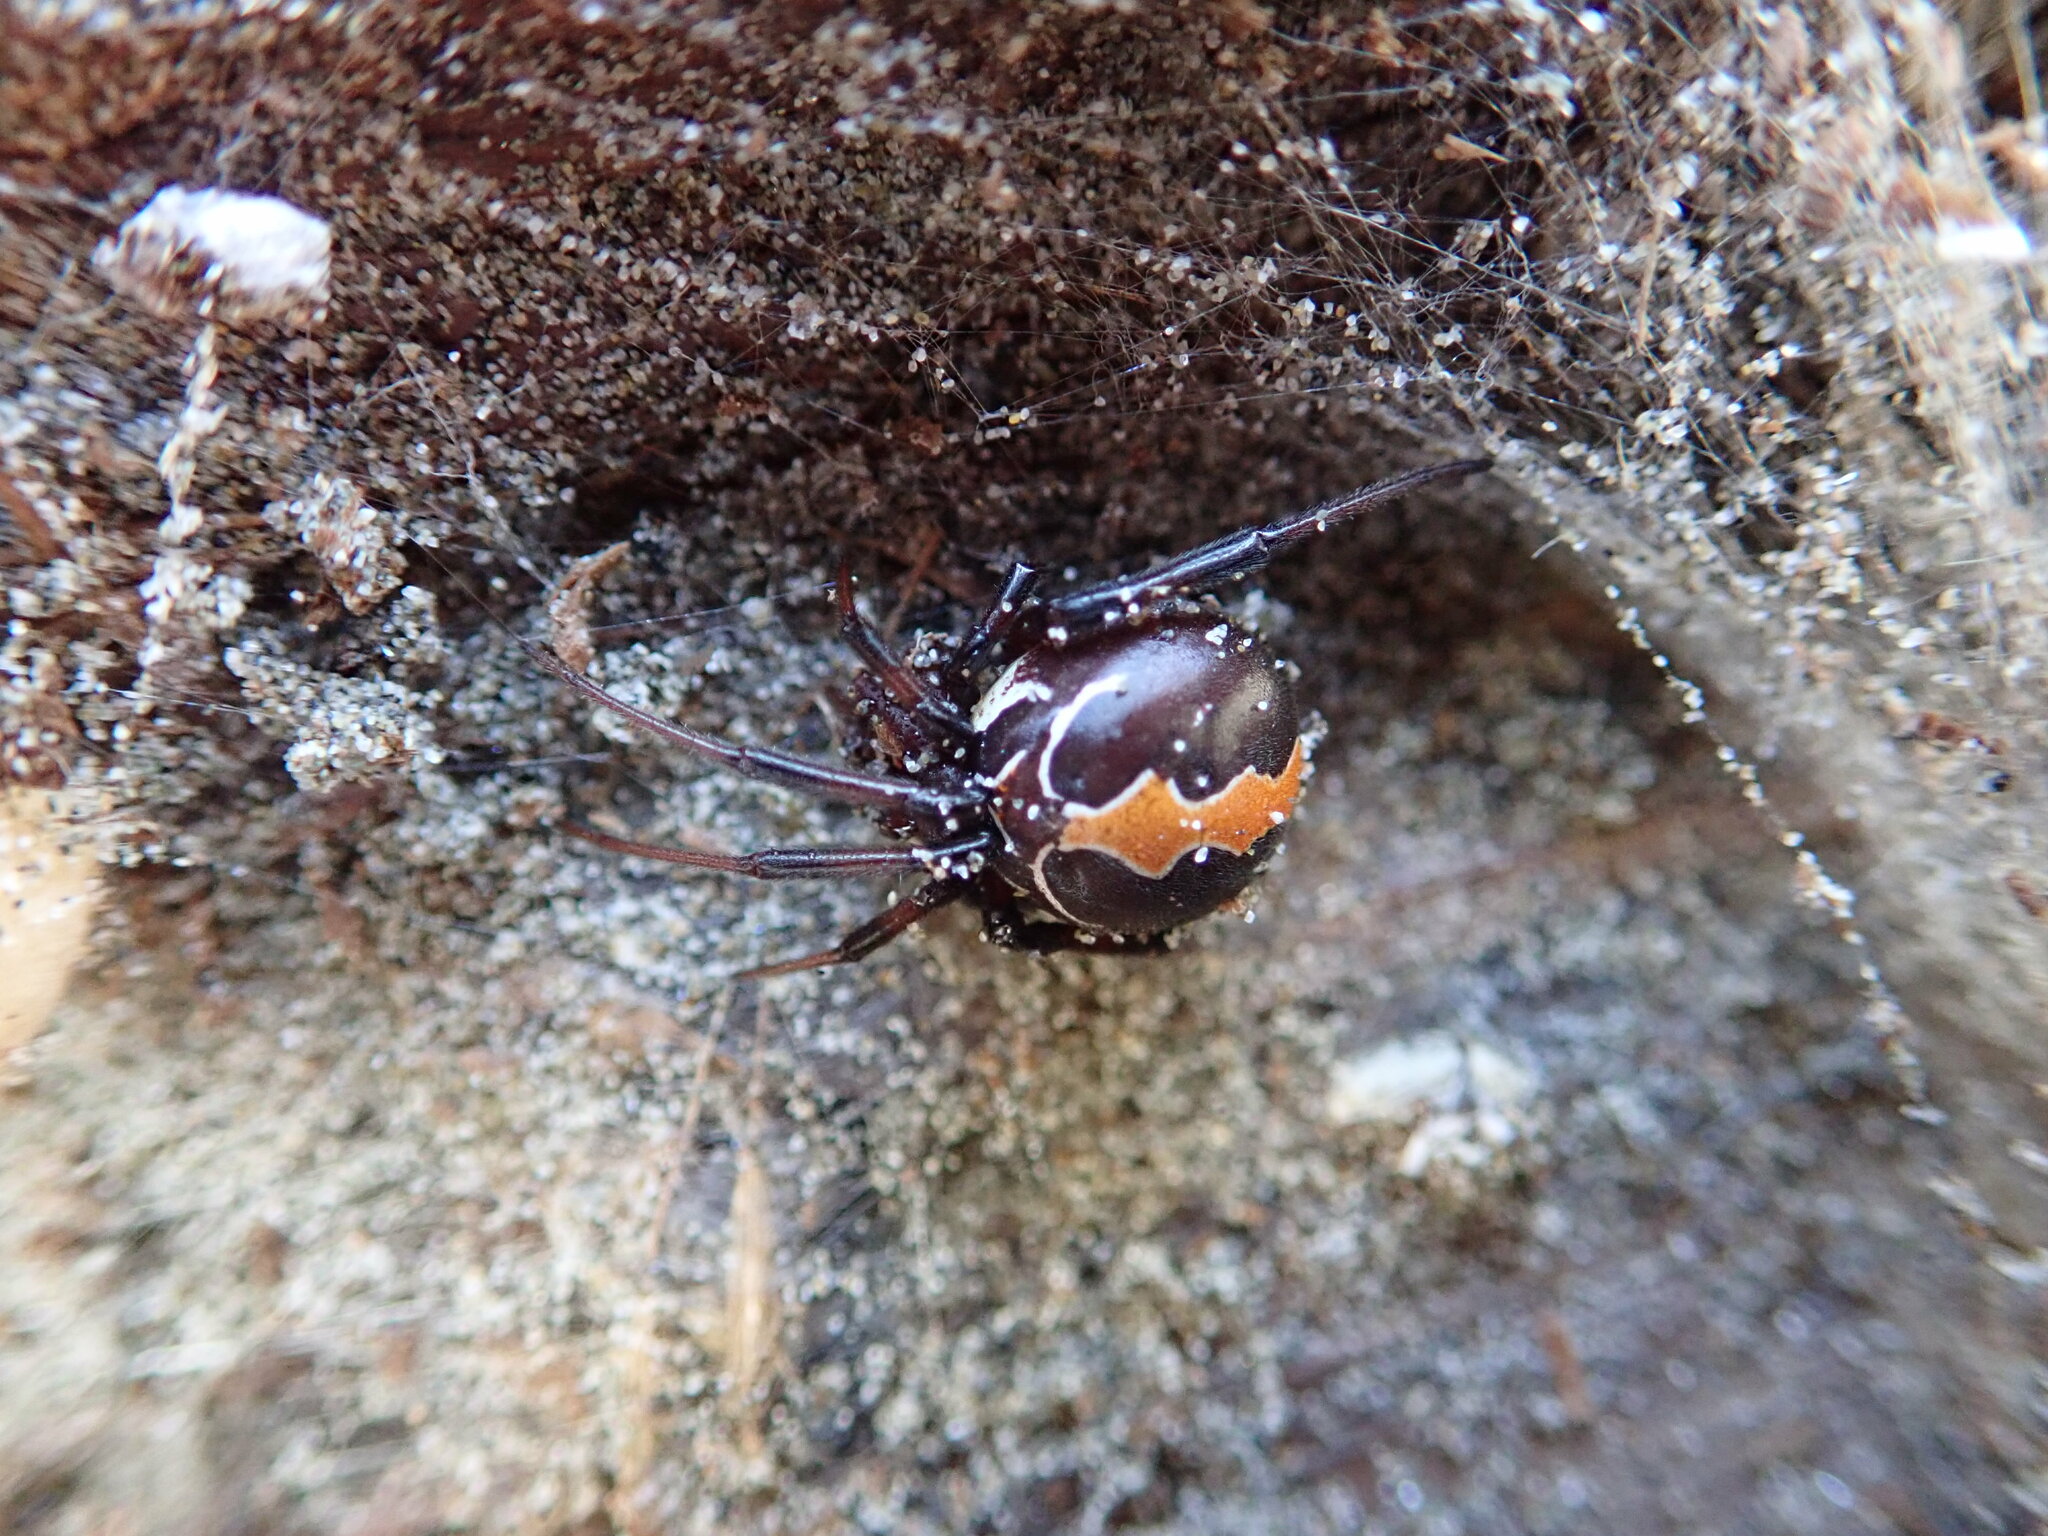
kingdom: Animalia
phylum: Arthropoda
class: Arachnida
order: Araneae
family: Theridiidae
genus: Latrodectus
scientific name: Latrodectus katipo
